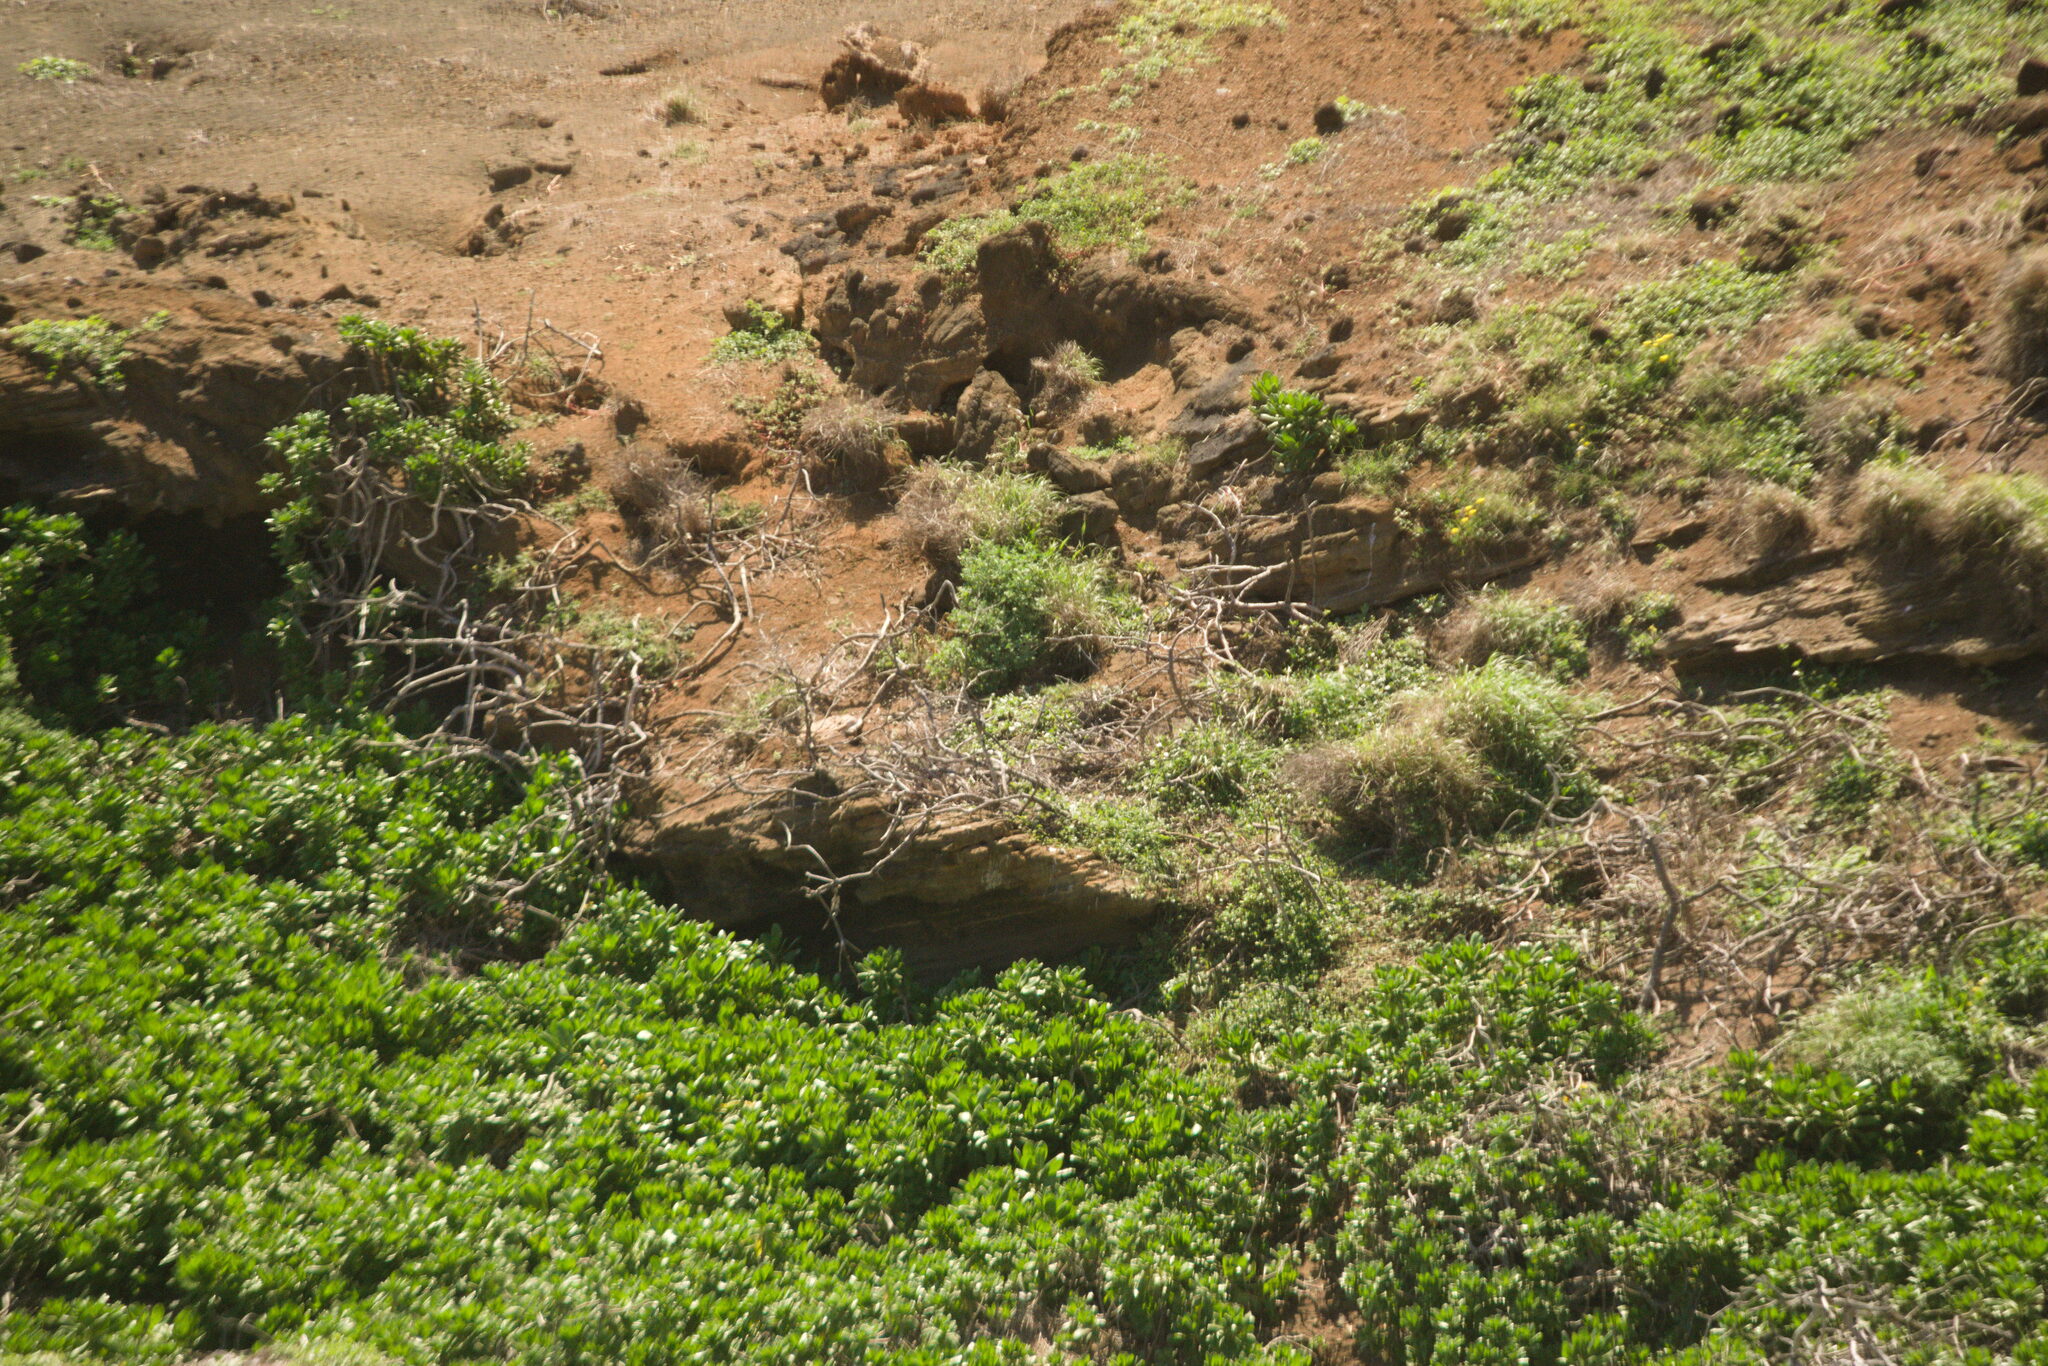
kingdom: Plantae
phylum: Tracheophyta
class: Magnoliopsida
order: Asterales
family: Goodeniaceae
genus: Scaevola
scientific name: Scaevola taccada
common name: Sea lettucetree
